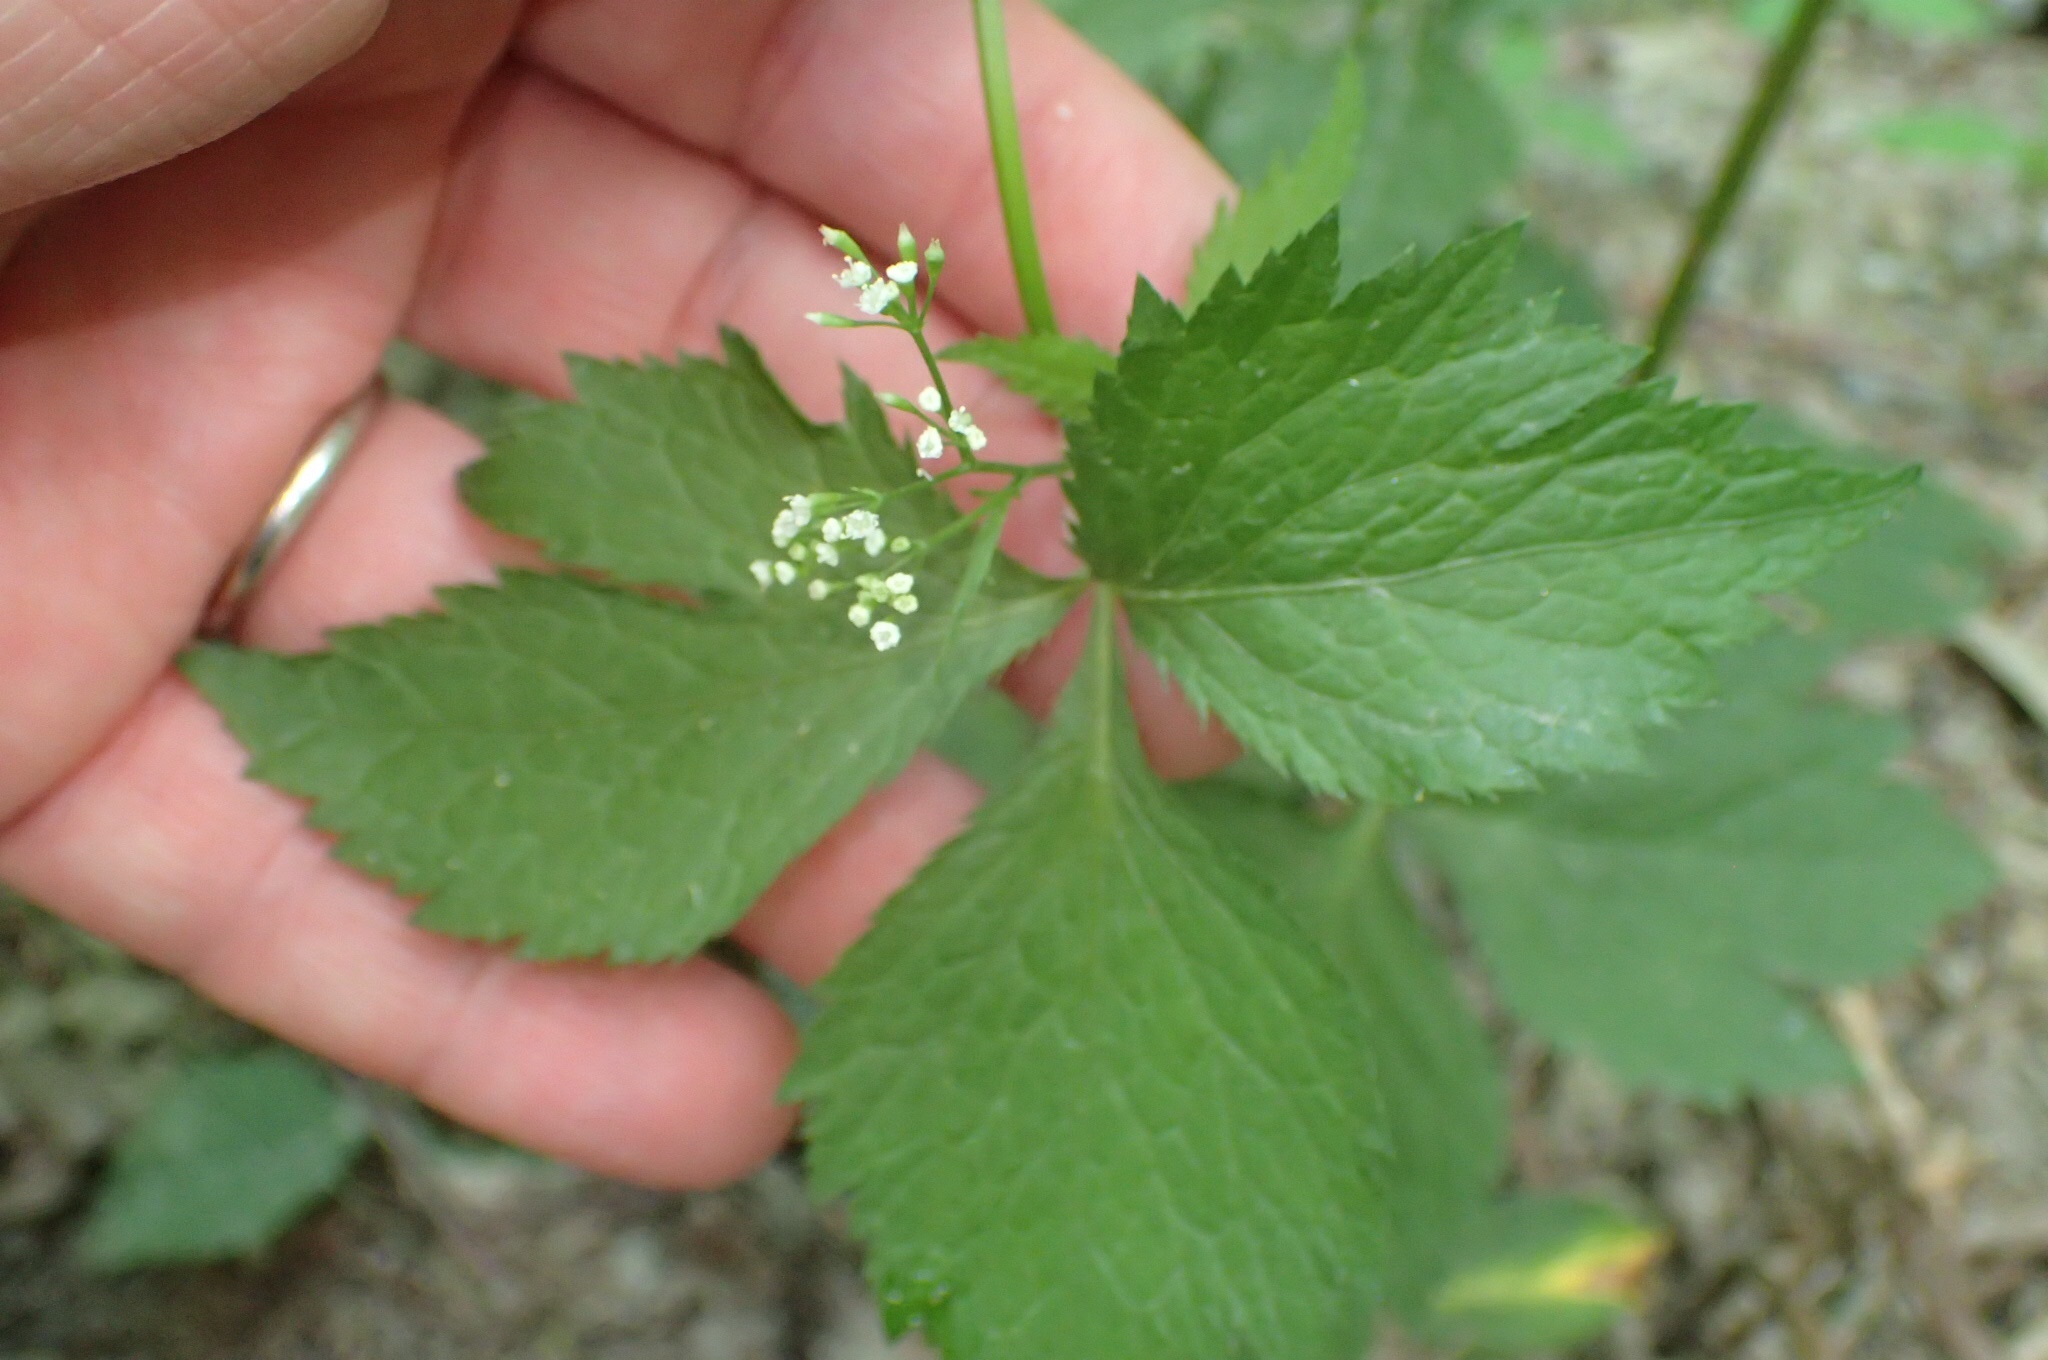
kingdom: Plantae
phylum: Tracheophyta
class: Magnoliopsida
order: Apiales
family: Apiaceae
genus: Cryptotaenia
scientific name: Cryptotaenia canadensis
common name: Honewort
